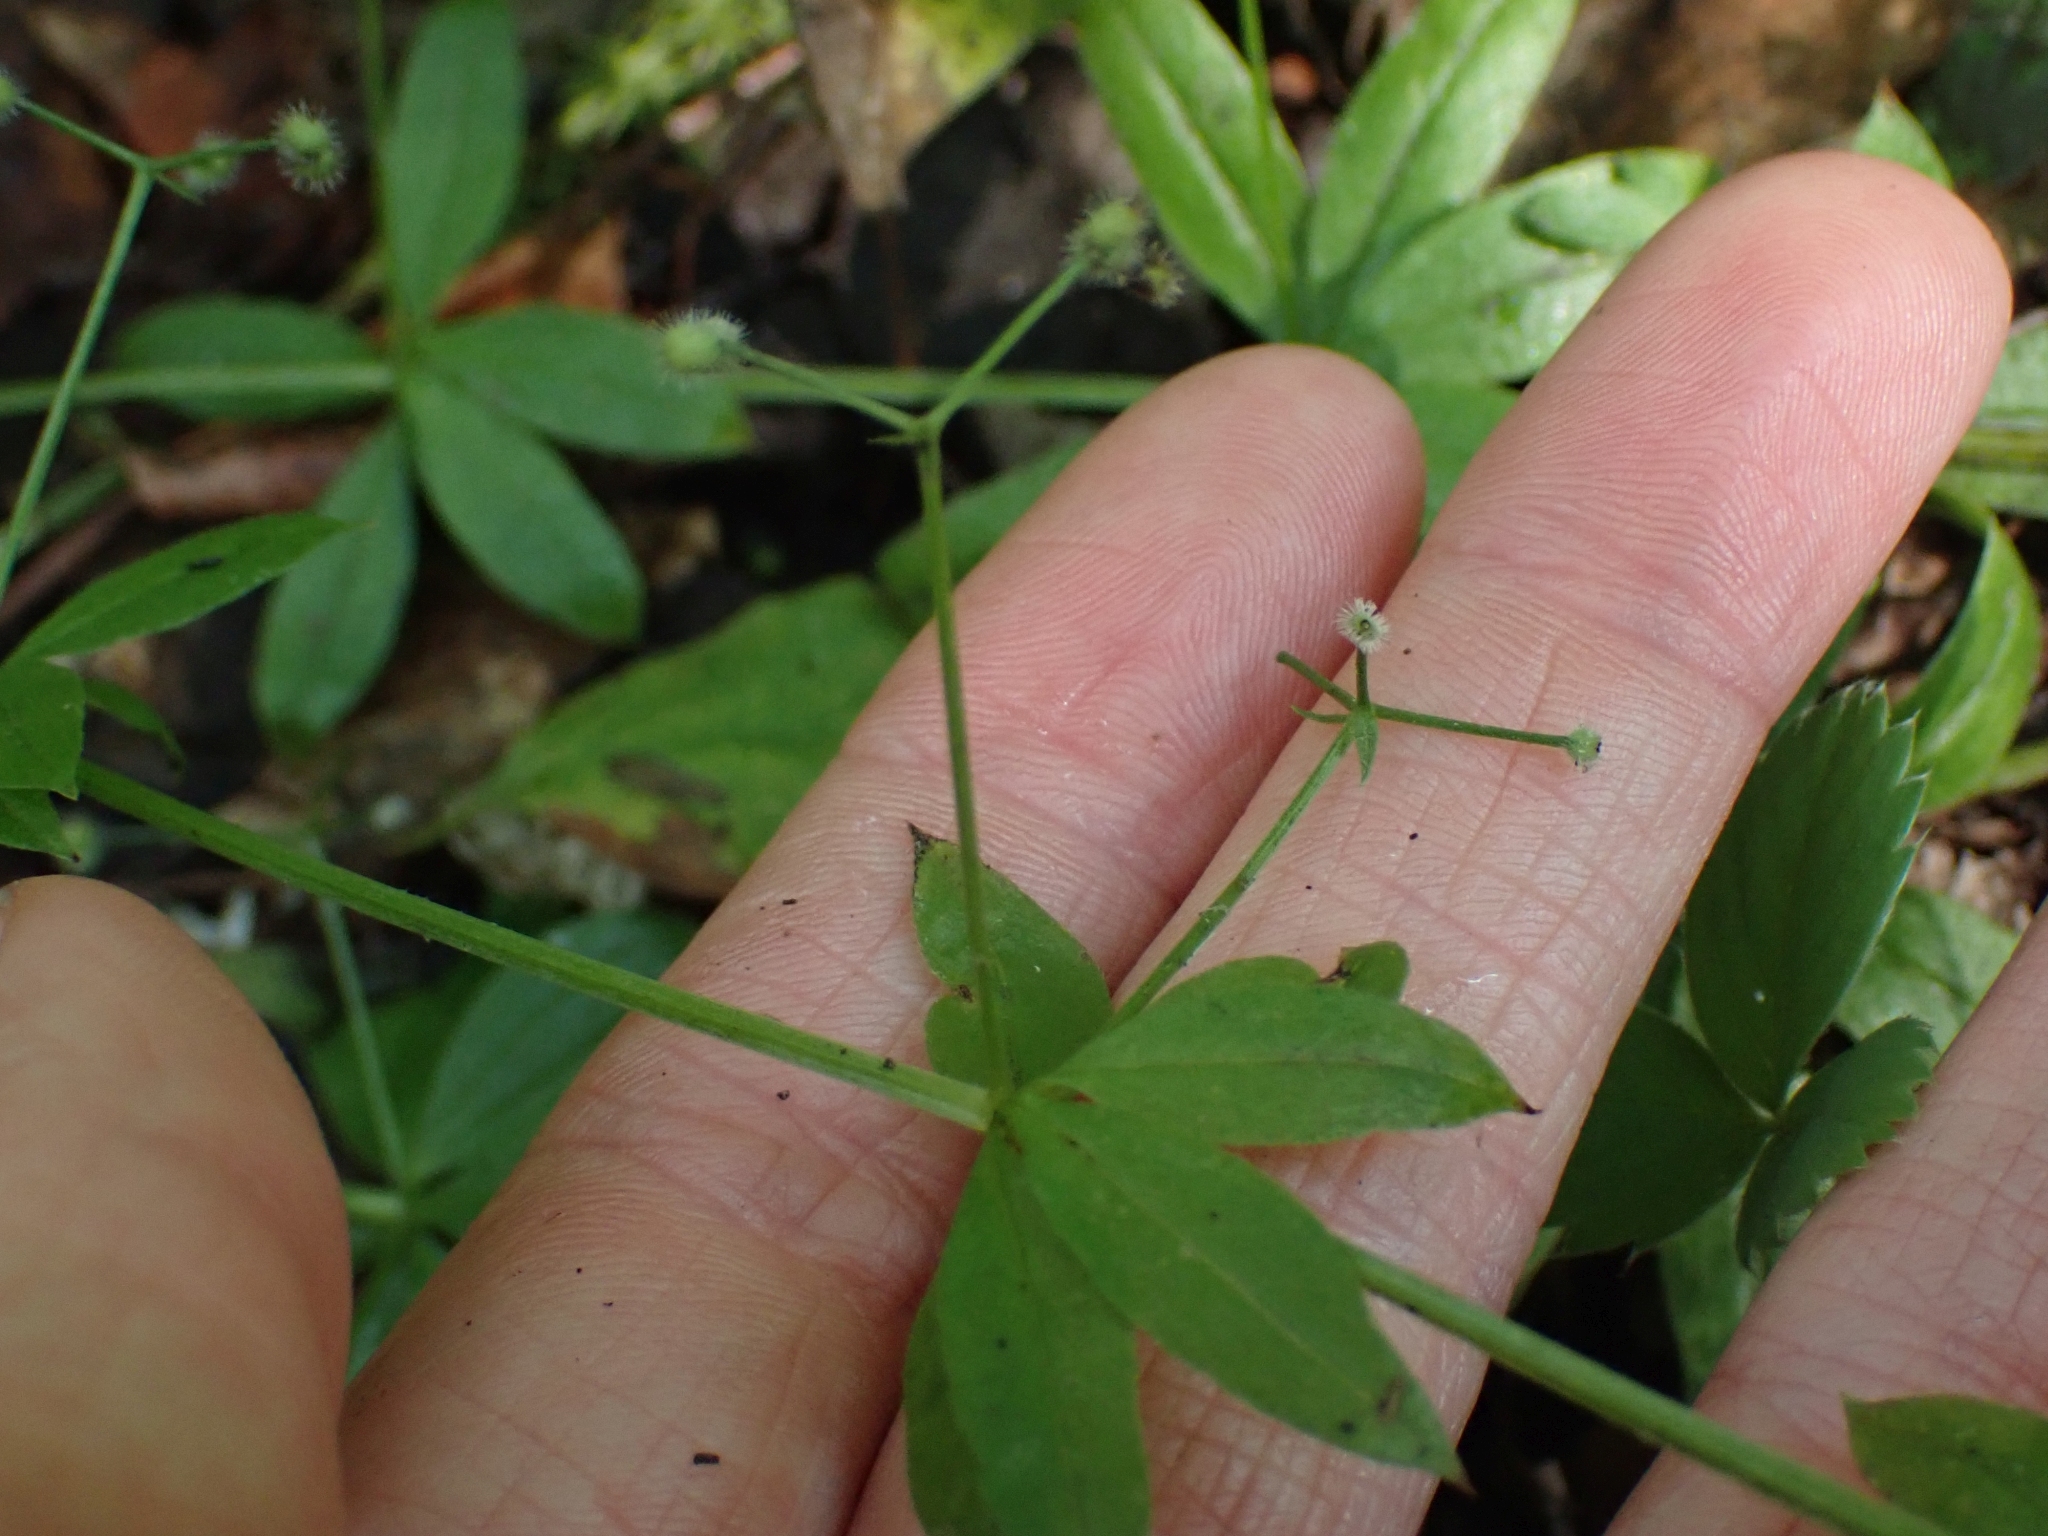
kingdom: Plantae
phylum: Tracheophyta
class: Magnoliopsida
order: Gentianales
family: Rubiaceae
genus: Galium
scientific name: Galium triflorum
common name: Fragrant bedstraw
